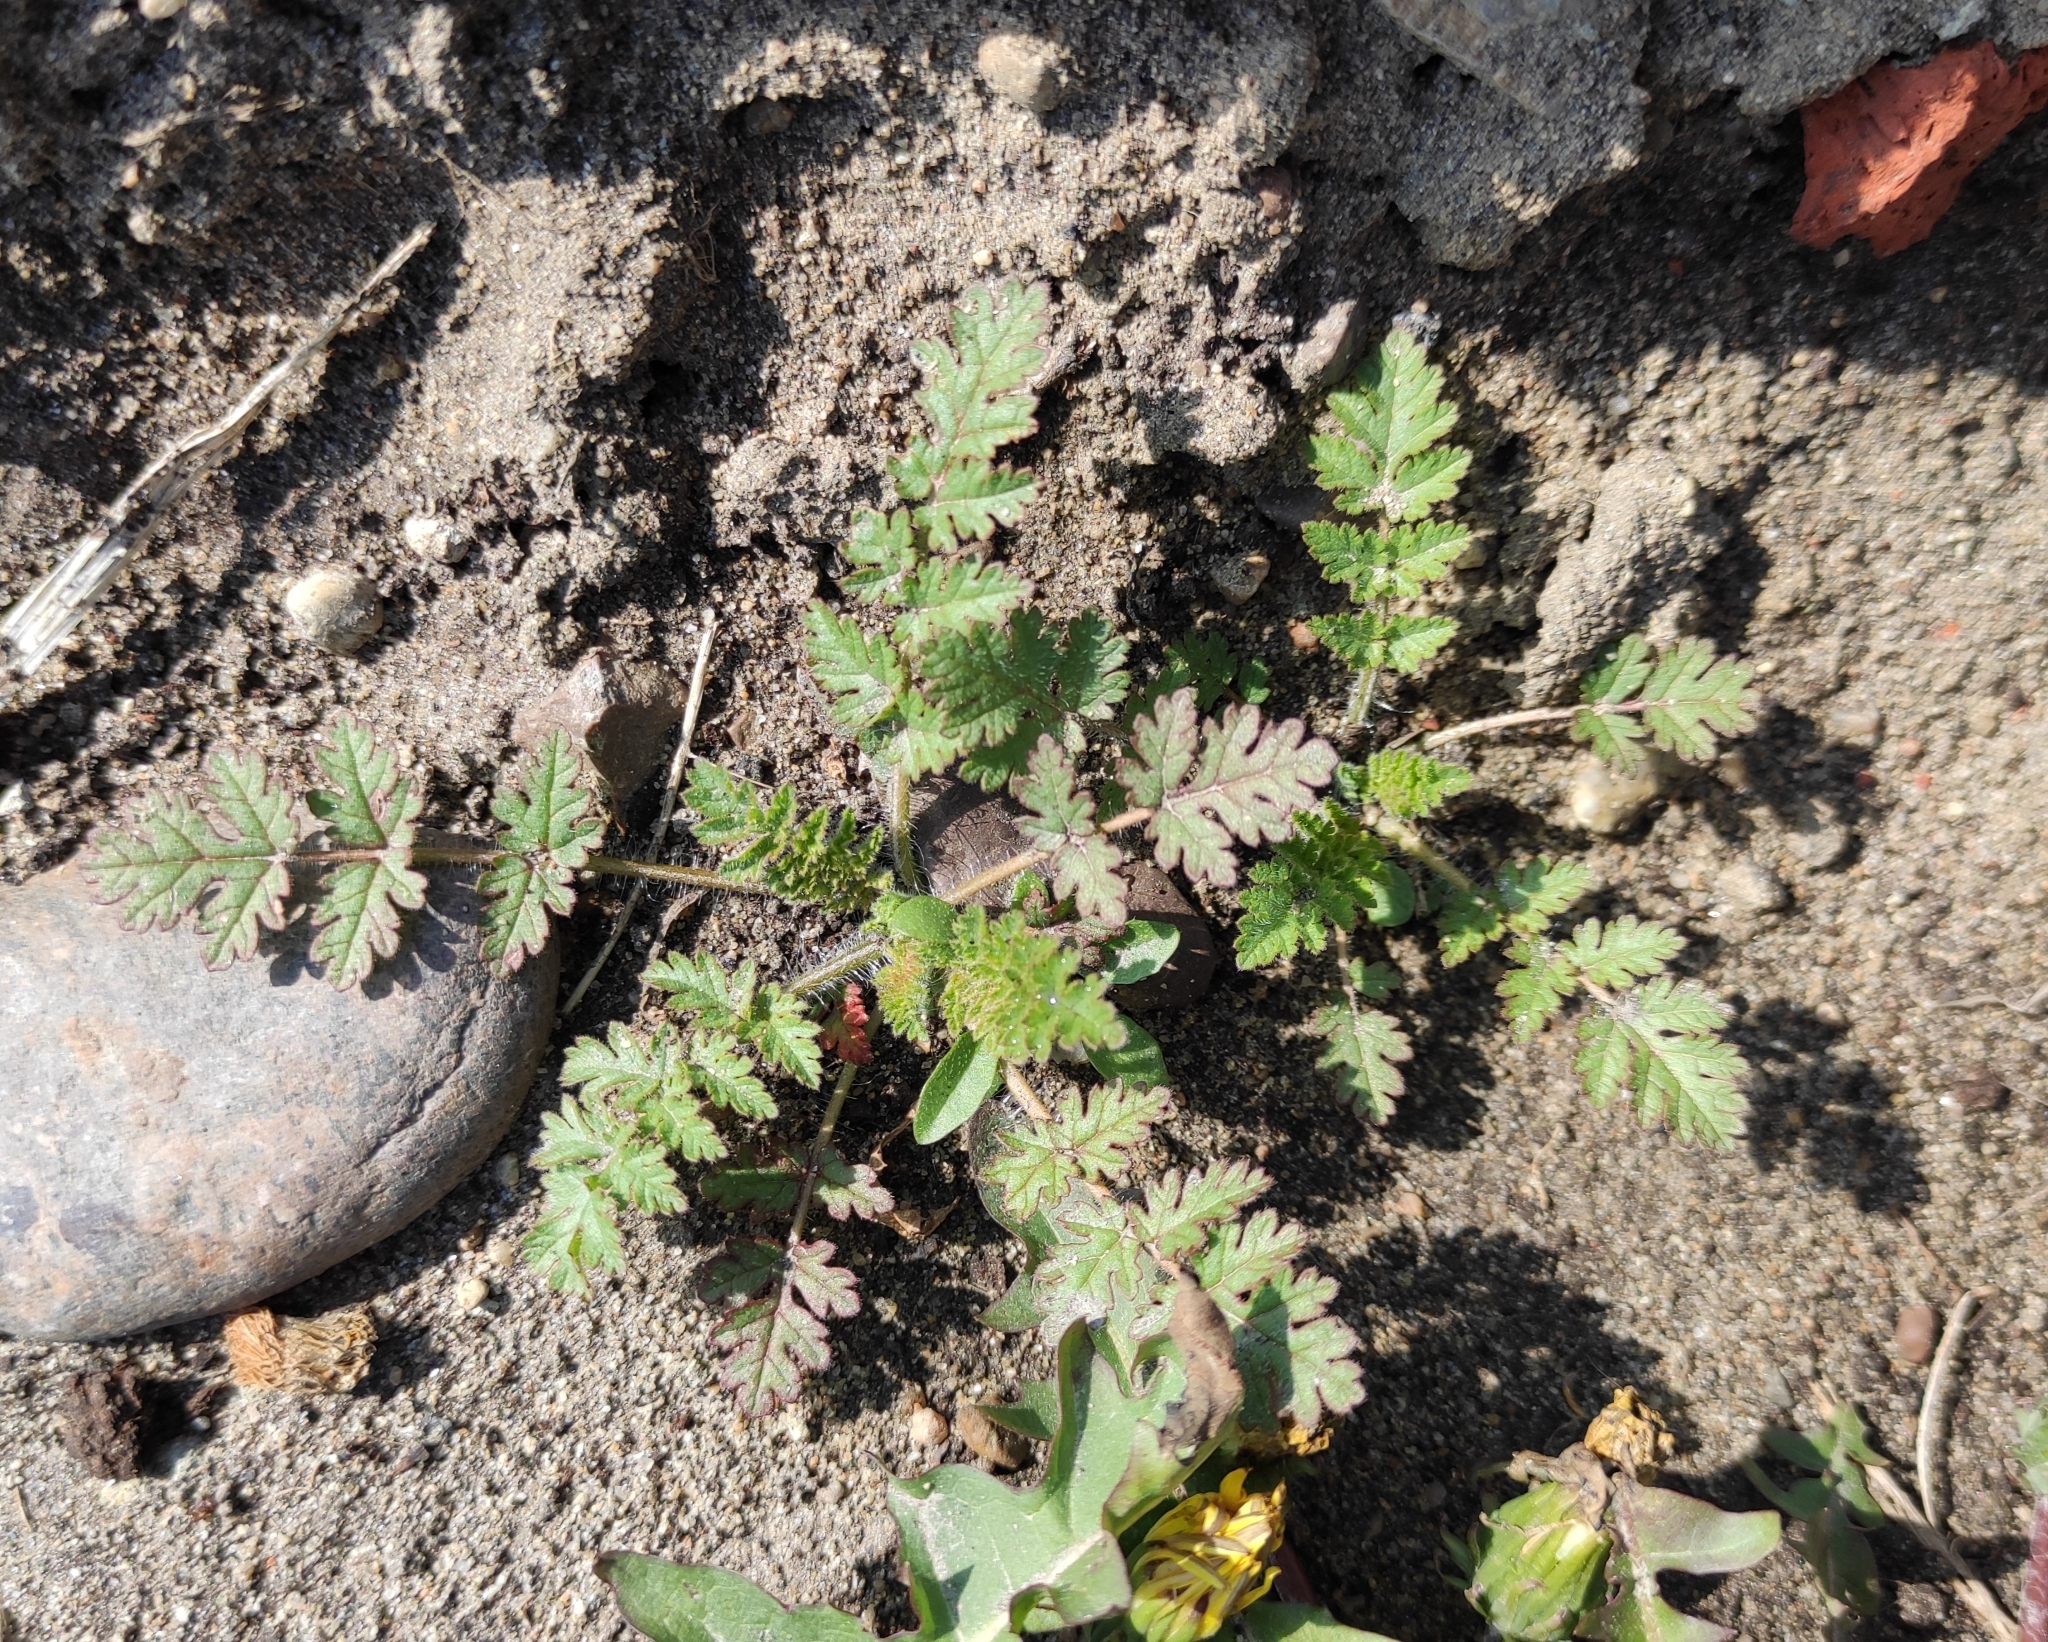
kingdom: Plantae
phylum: Tracheophyta
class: Magnoliopsida
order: Geraniales
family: Geraniaceae
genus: Erodium
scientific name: Erodium cicutarium
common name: Common stork's-bill
